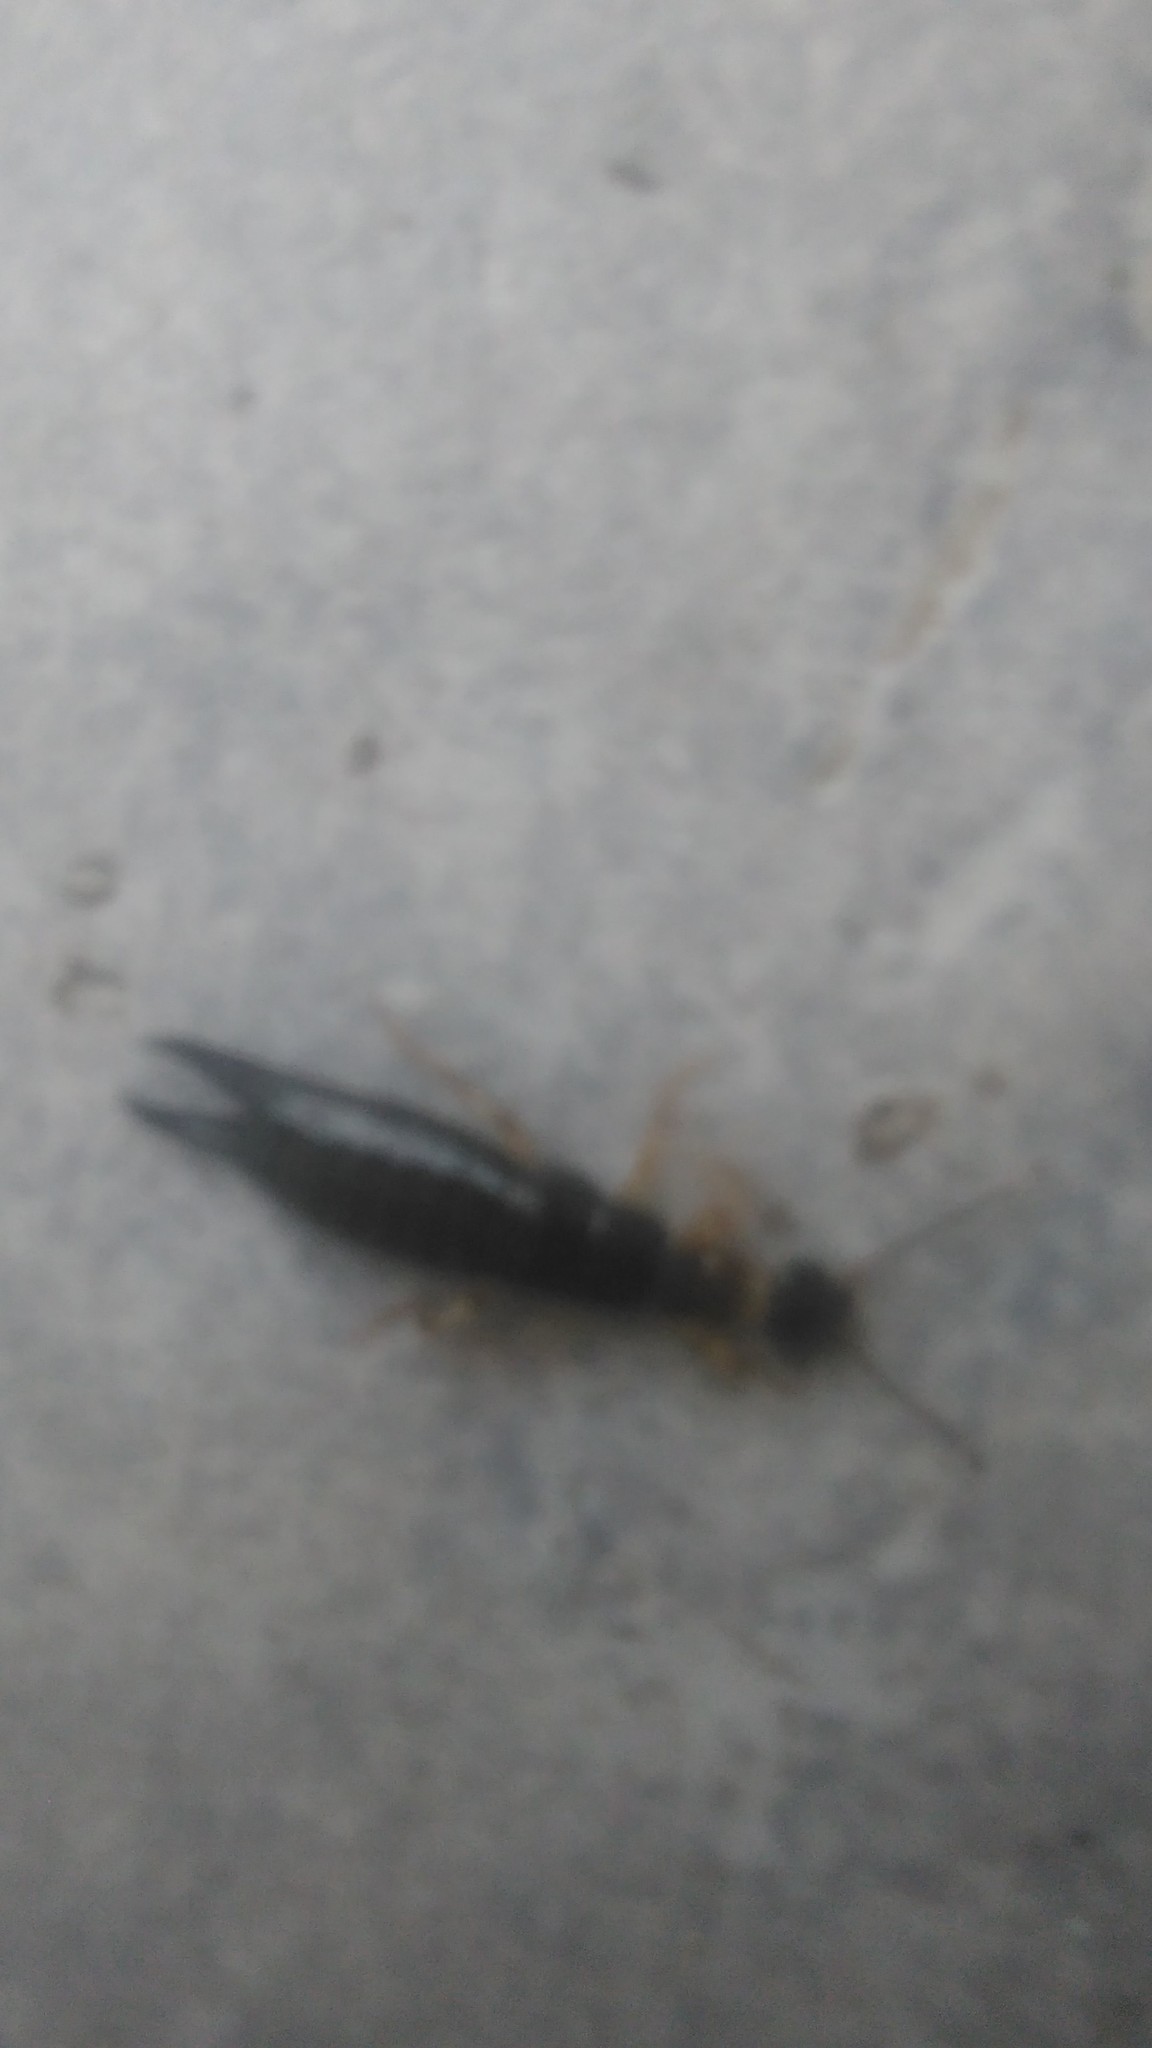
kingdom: Animalia
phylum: Arthropoda
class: Insecta
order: Dermaptera
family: Anisolabididae
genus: Euborellia
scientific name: Euborellia annulipes
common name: Ringlegged earwig
